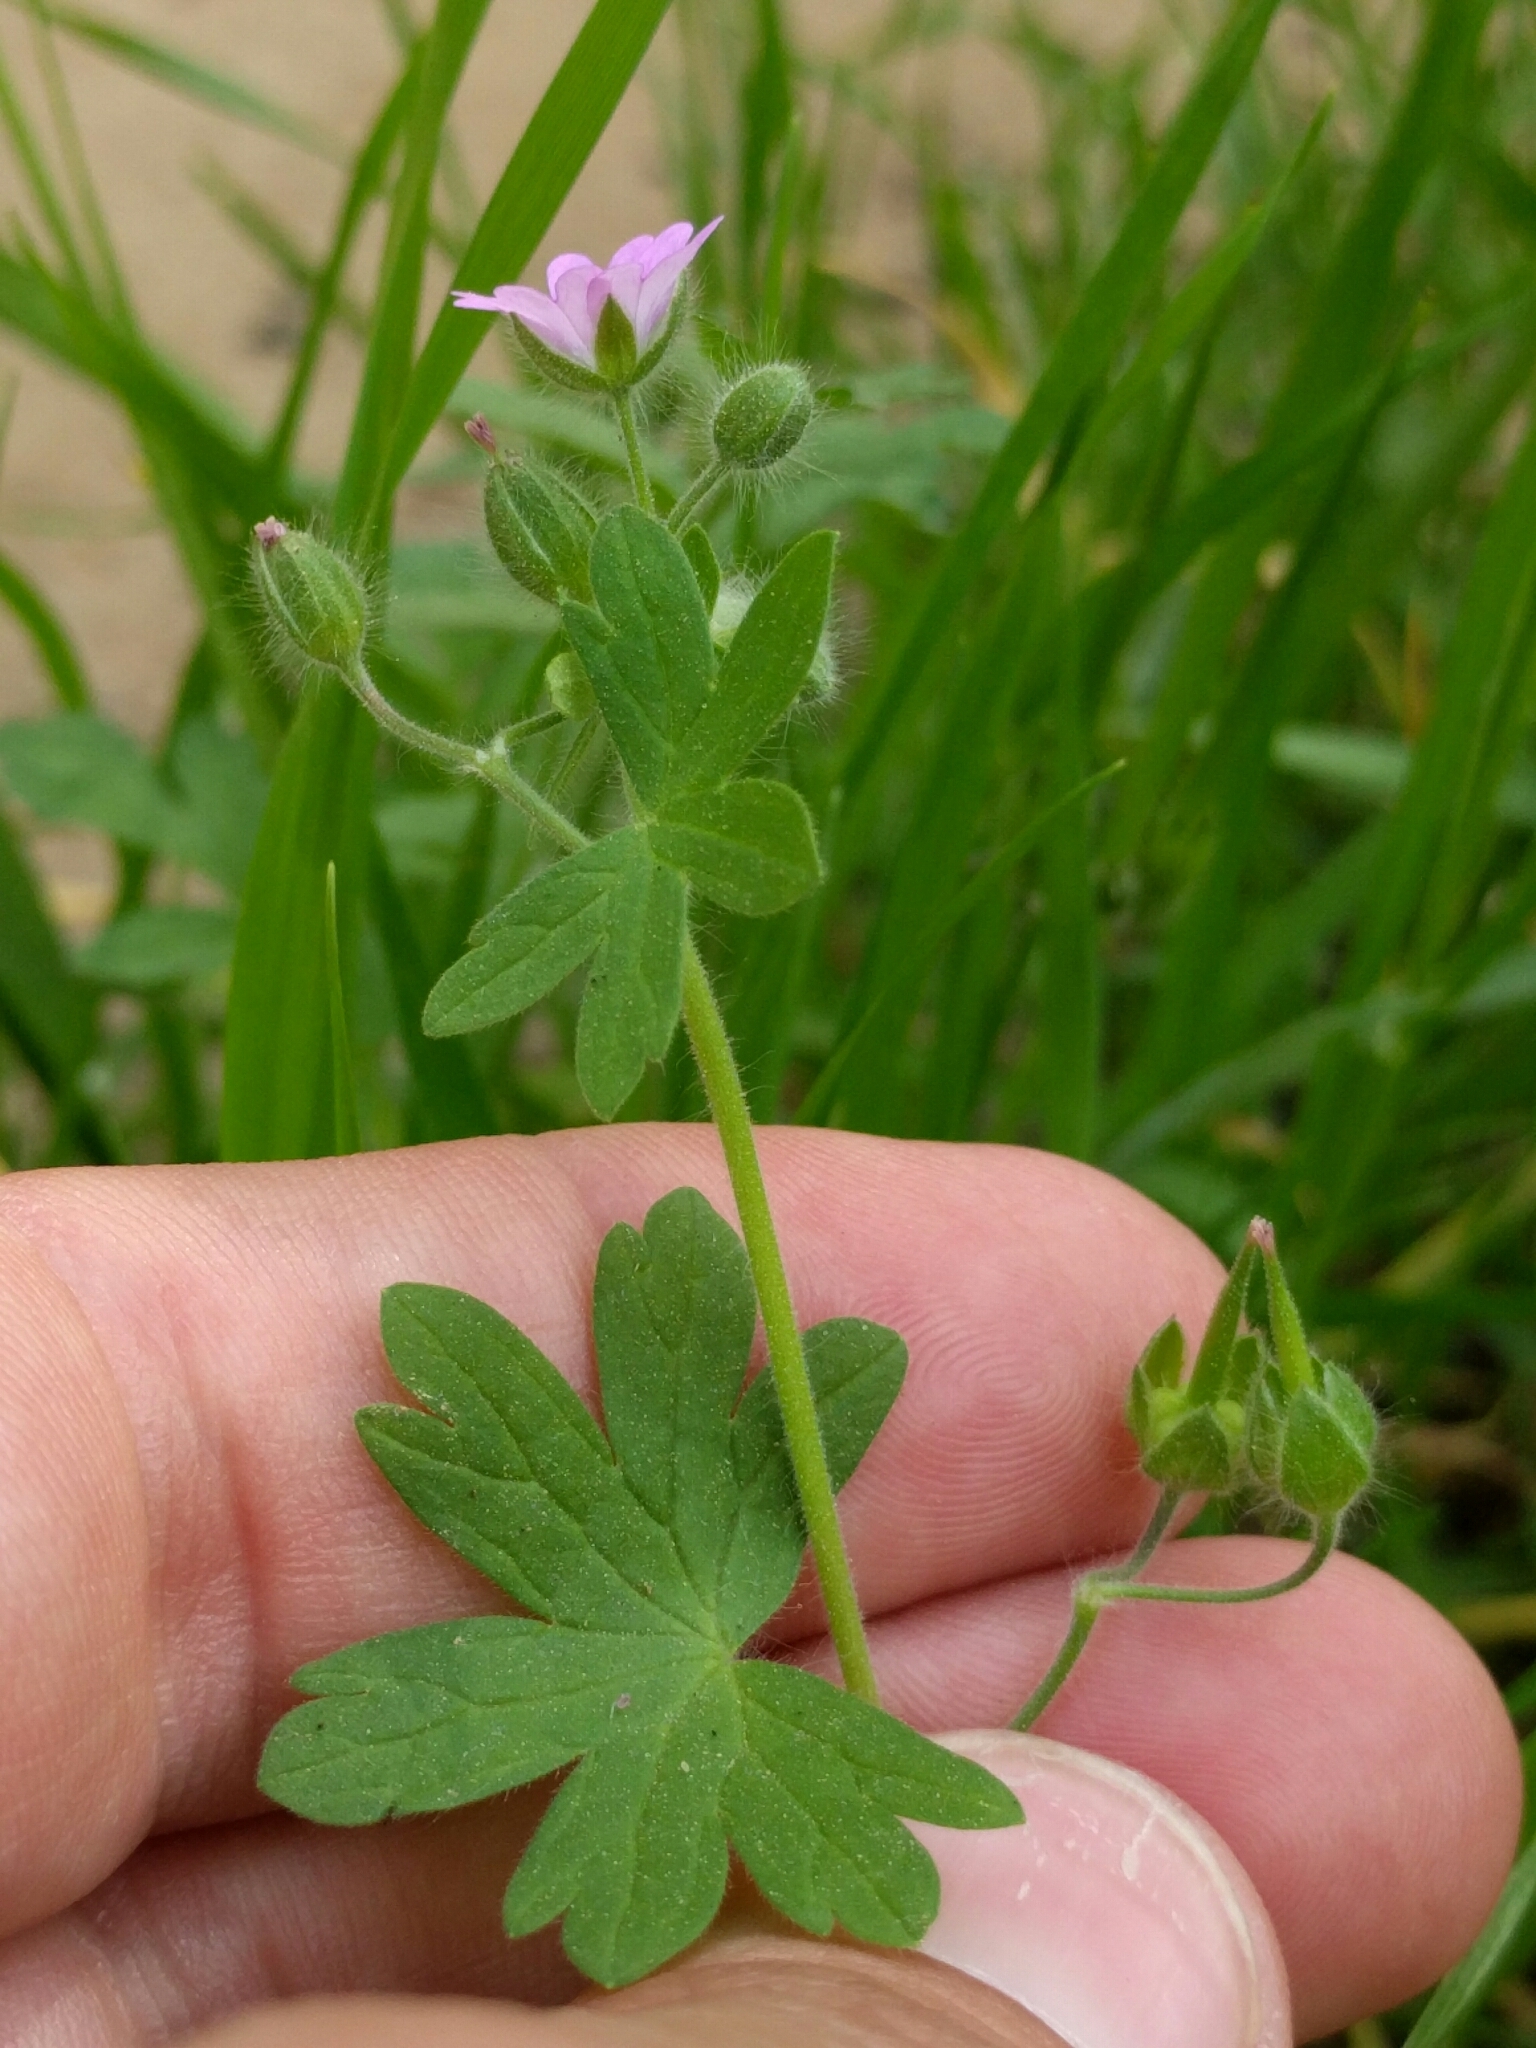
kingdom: Plantae
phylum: Tracheophyta
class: Magnoliopsida
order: Geraniales
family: Geraniaceae
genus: Geranium
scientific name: Geranium molle
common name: Dove's-foot crane's-bill
